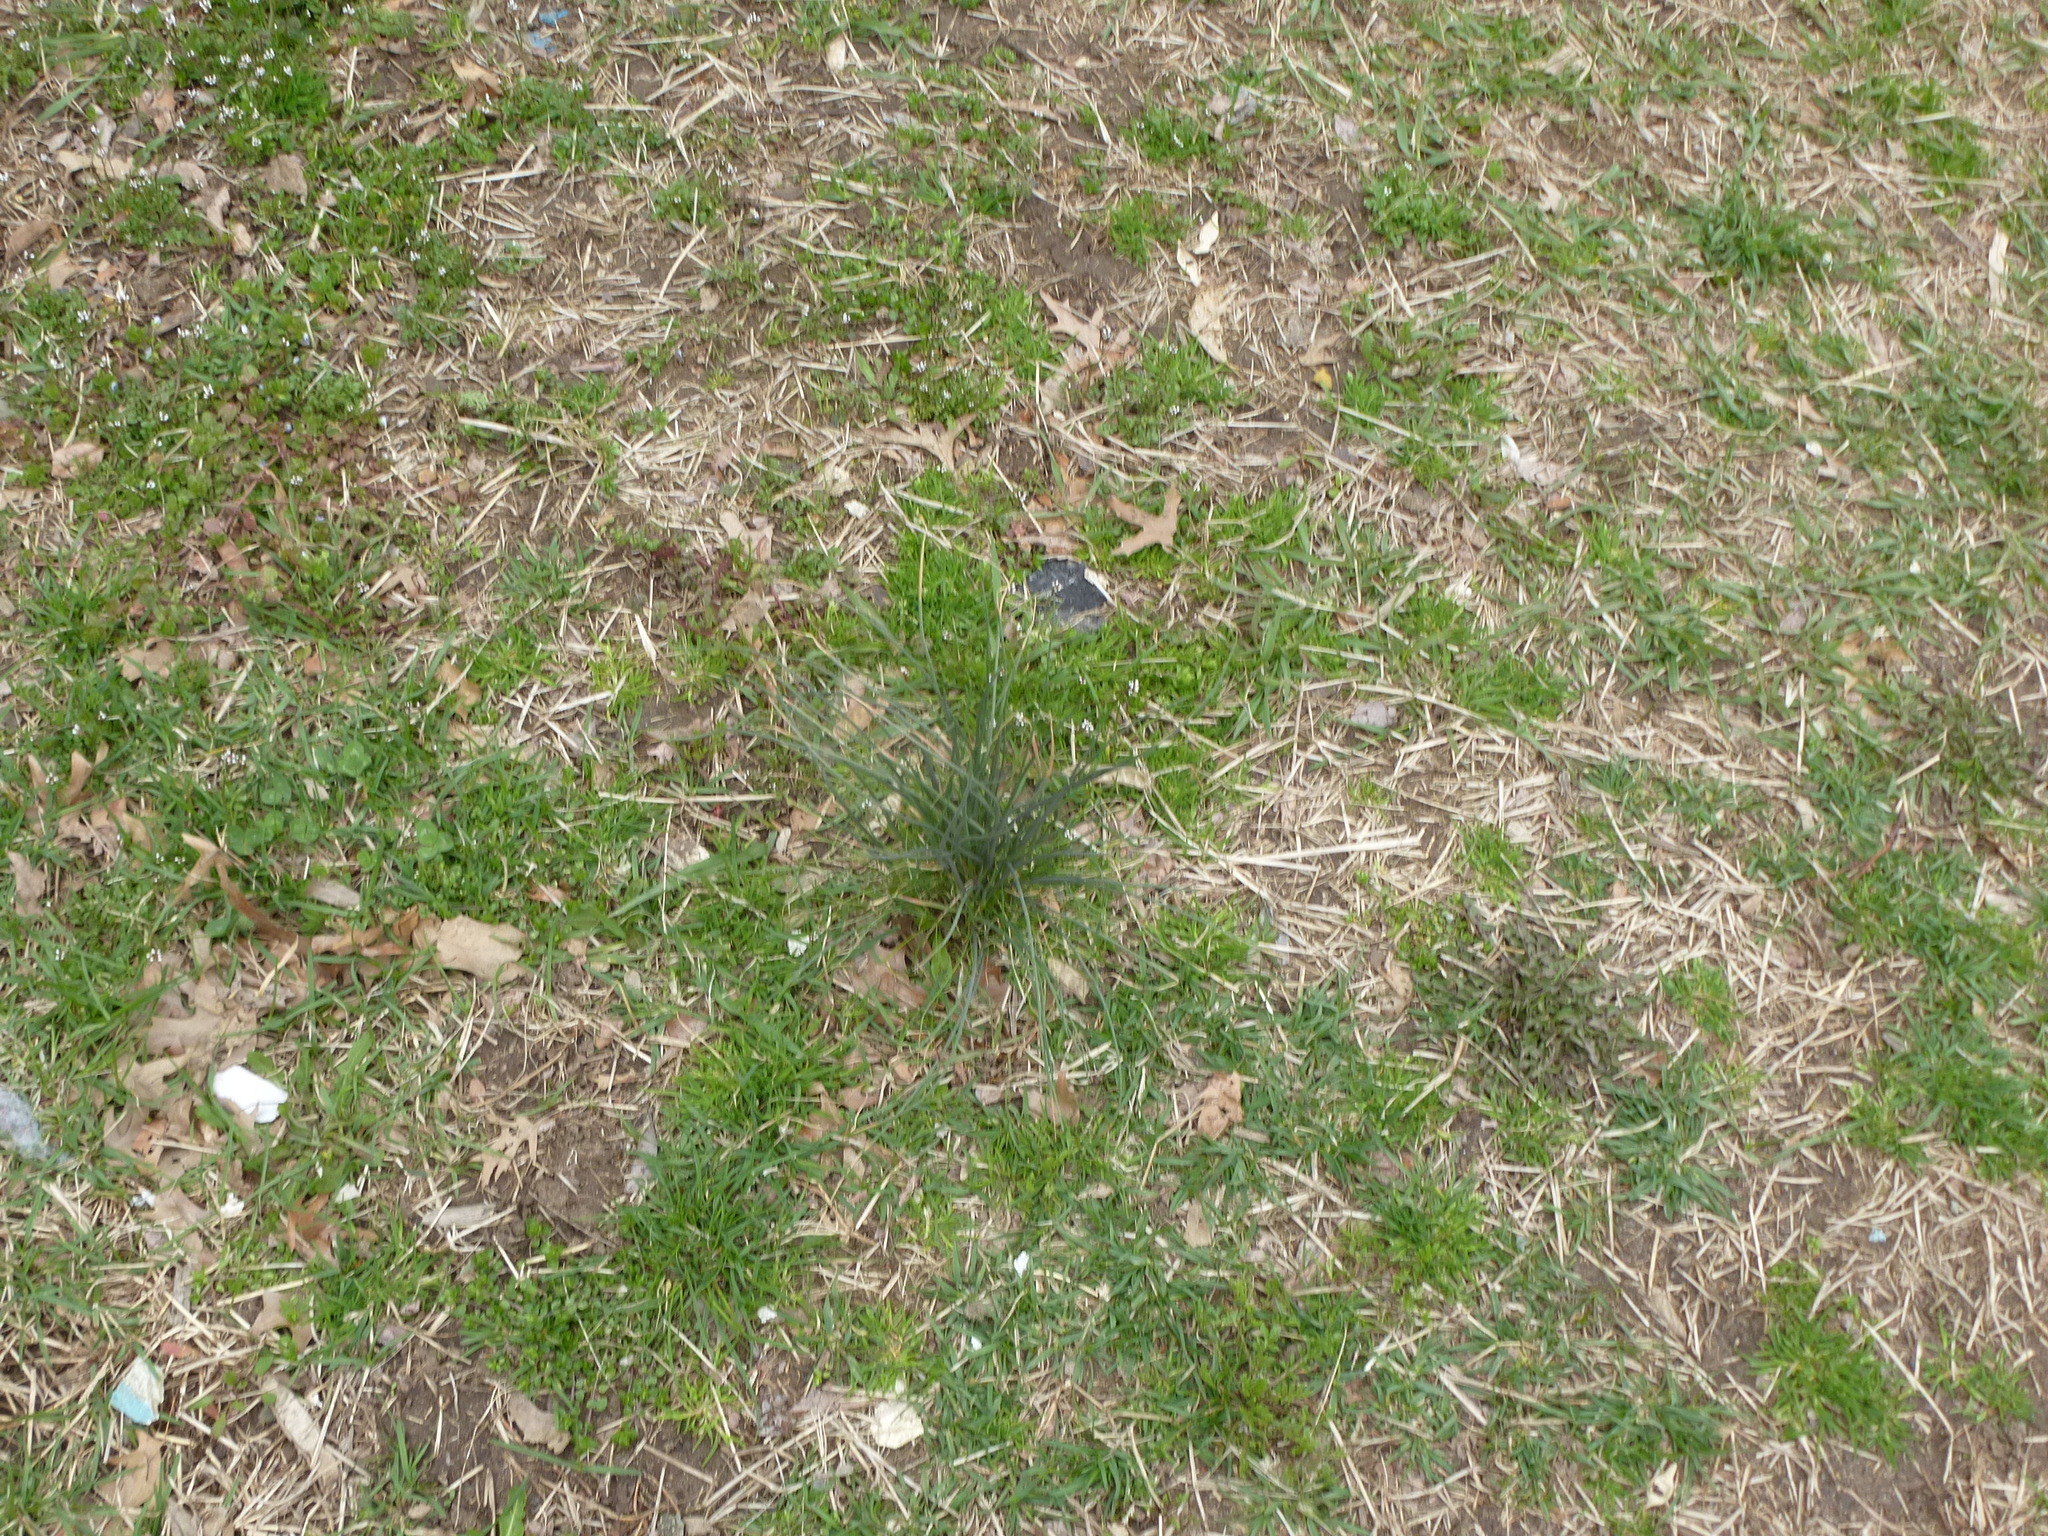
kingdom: Plantae
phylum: Tracheophyta
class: Liliopsida
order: Asparagales
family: Amaryllidaceae
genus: Allium
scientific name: Allium vineale
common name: Crow garlic
